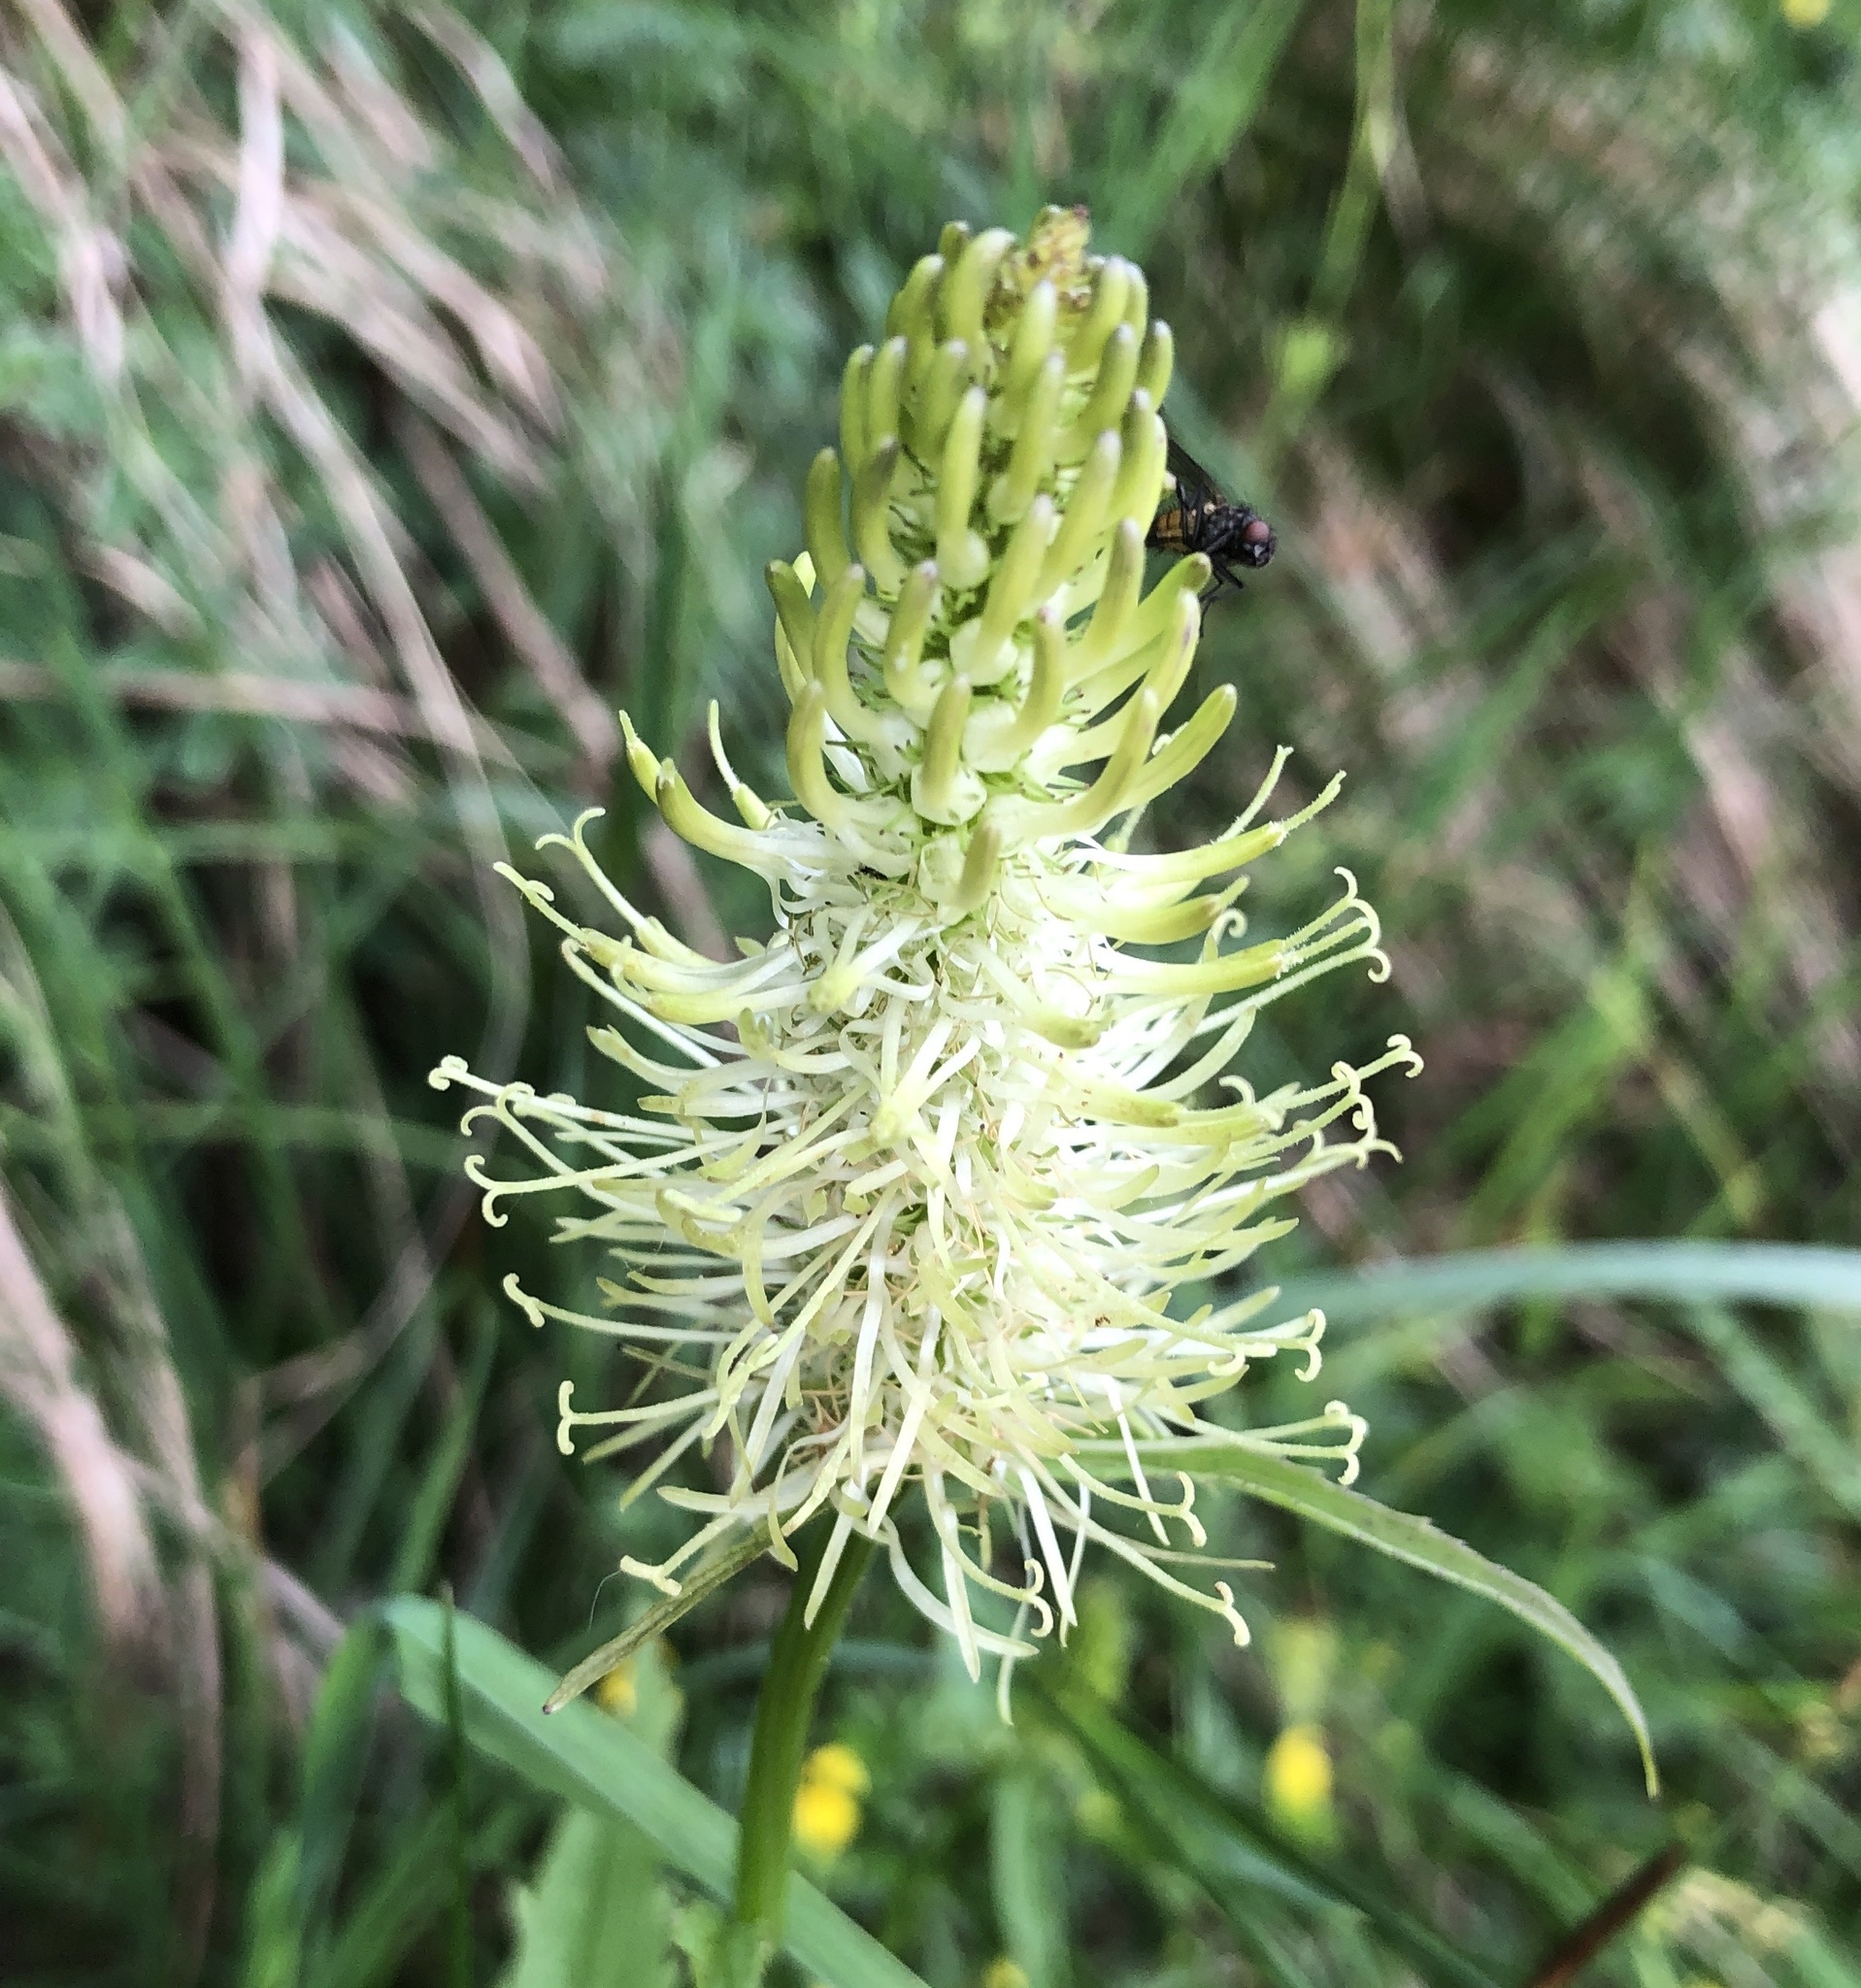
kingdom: Plantae
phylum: Tracheophyta
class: Magnoliopsida
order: Asterales
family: Campanulaceae
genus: Phyteuma
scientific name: Phyteuma spicatum
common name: Spiked rampion
